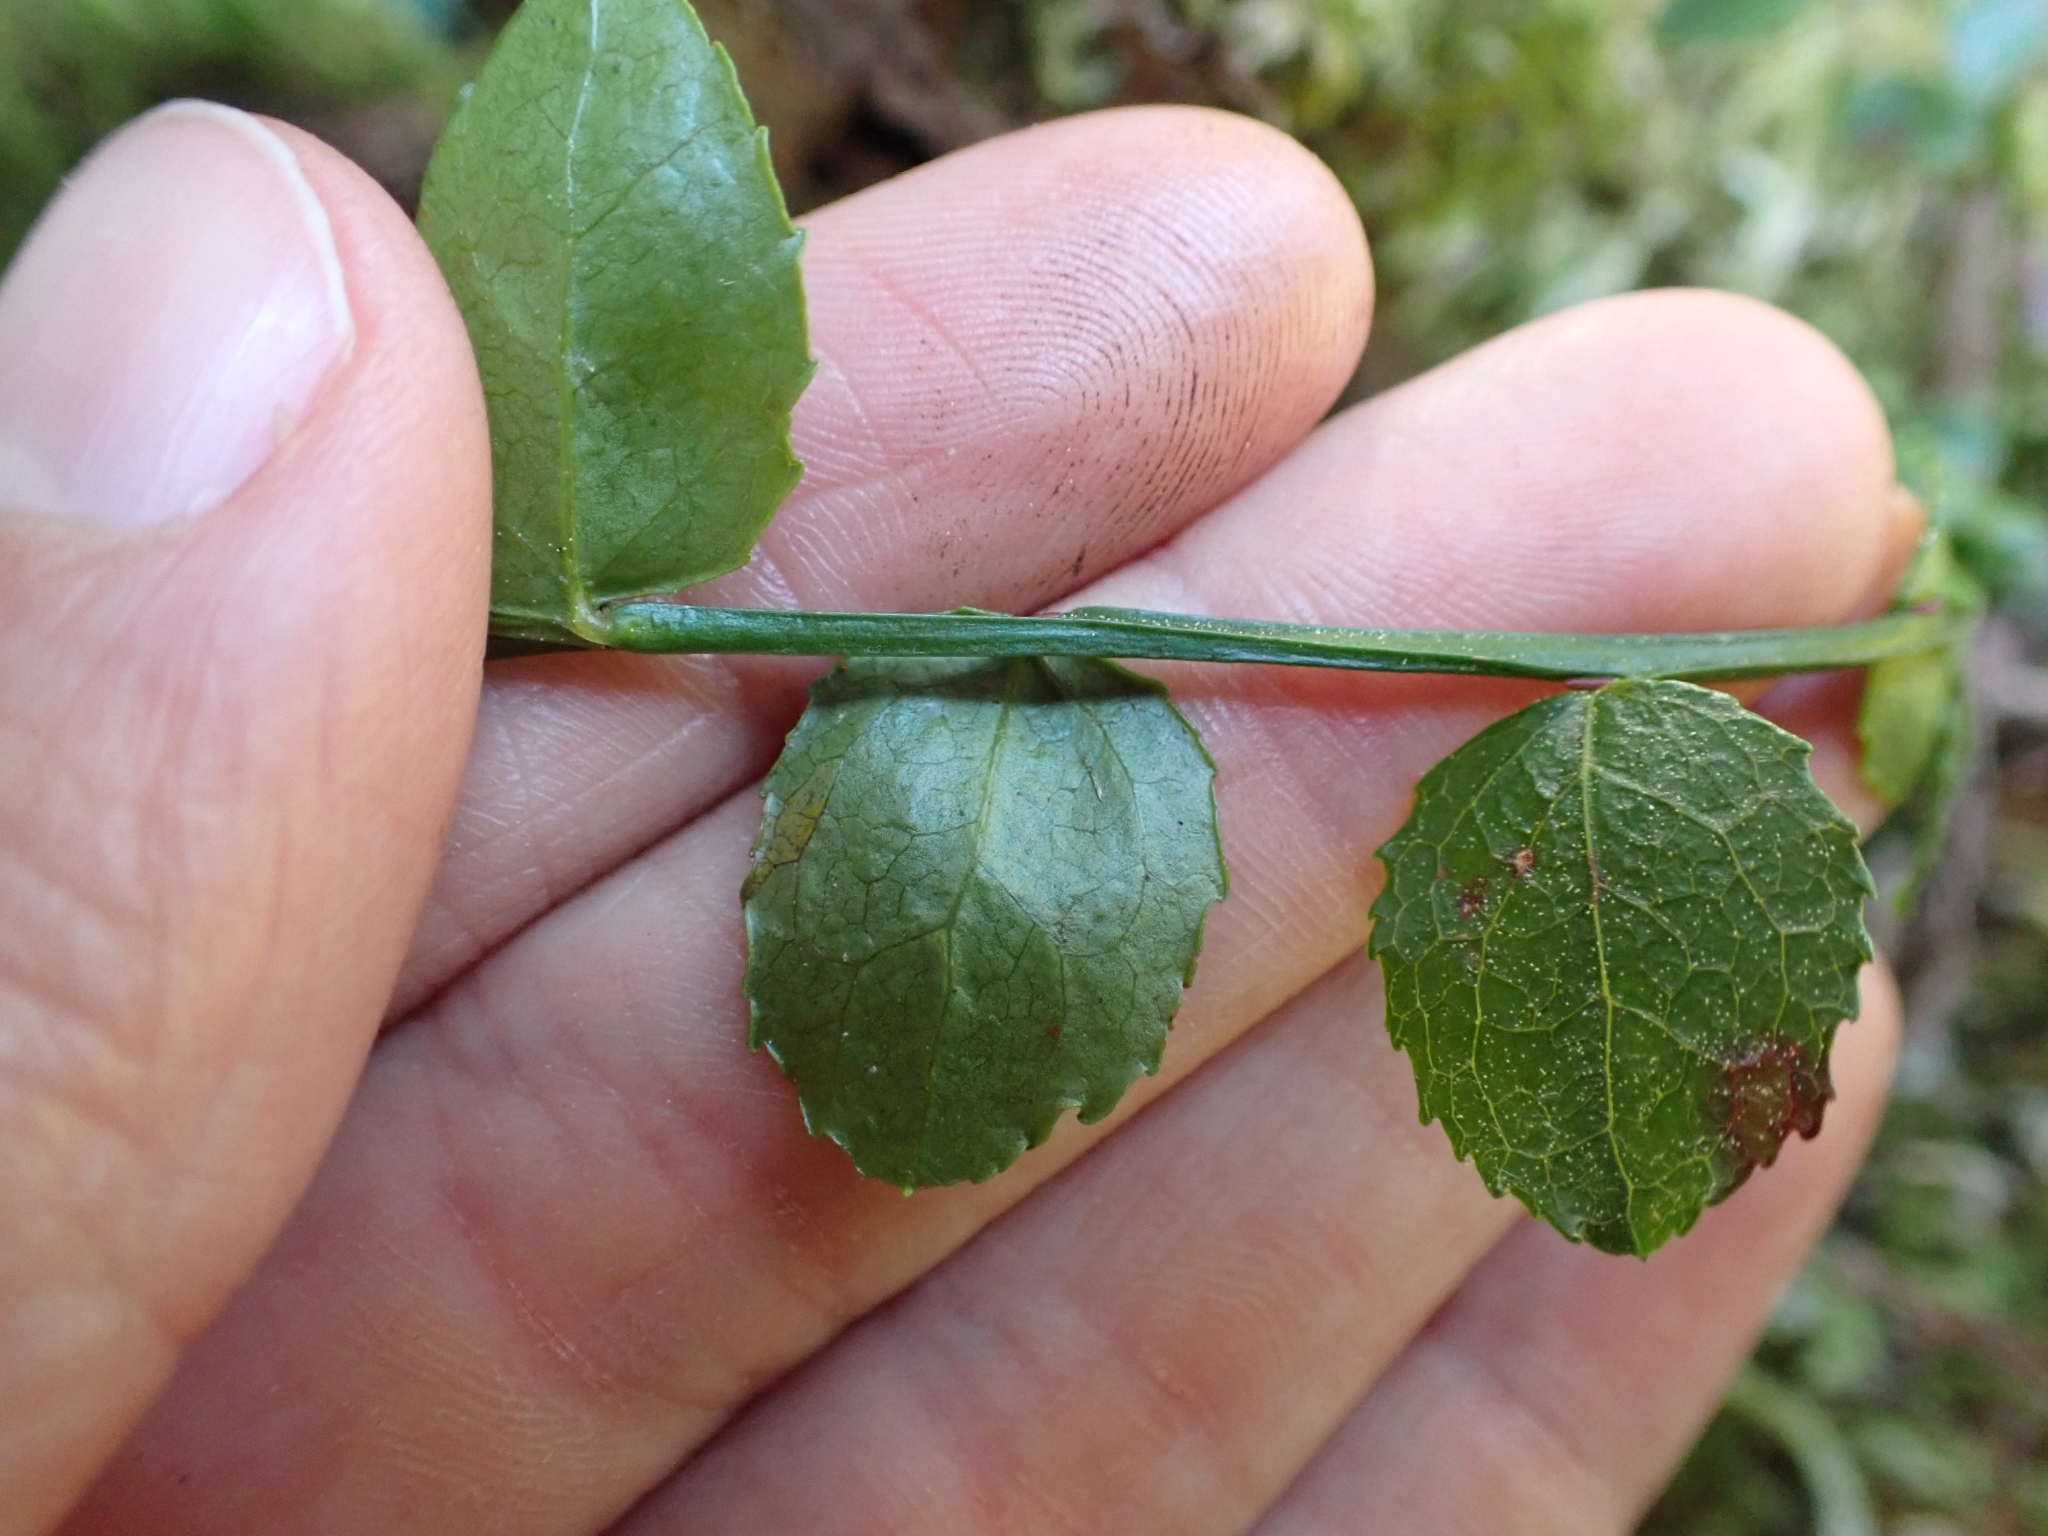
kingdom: Plantae
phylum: Tracheophyta
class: Magnoliopsida
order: Ericales
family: Ericaceae
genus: Vaccinium
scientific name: Vaccinium parvifolium
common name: Red-huckleberry
